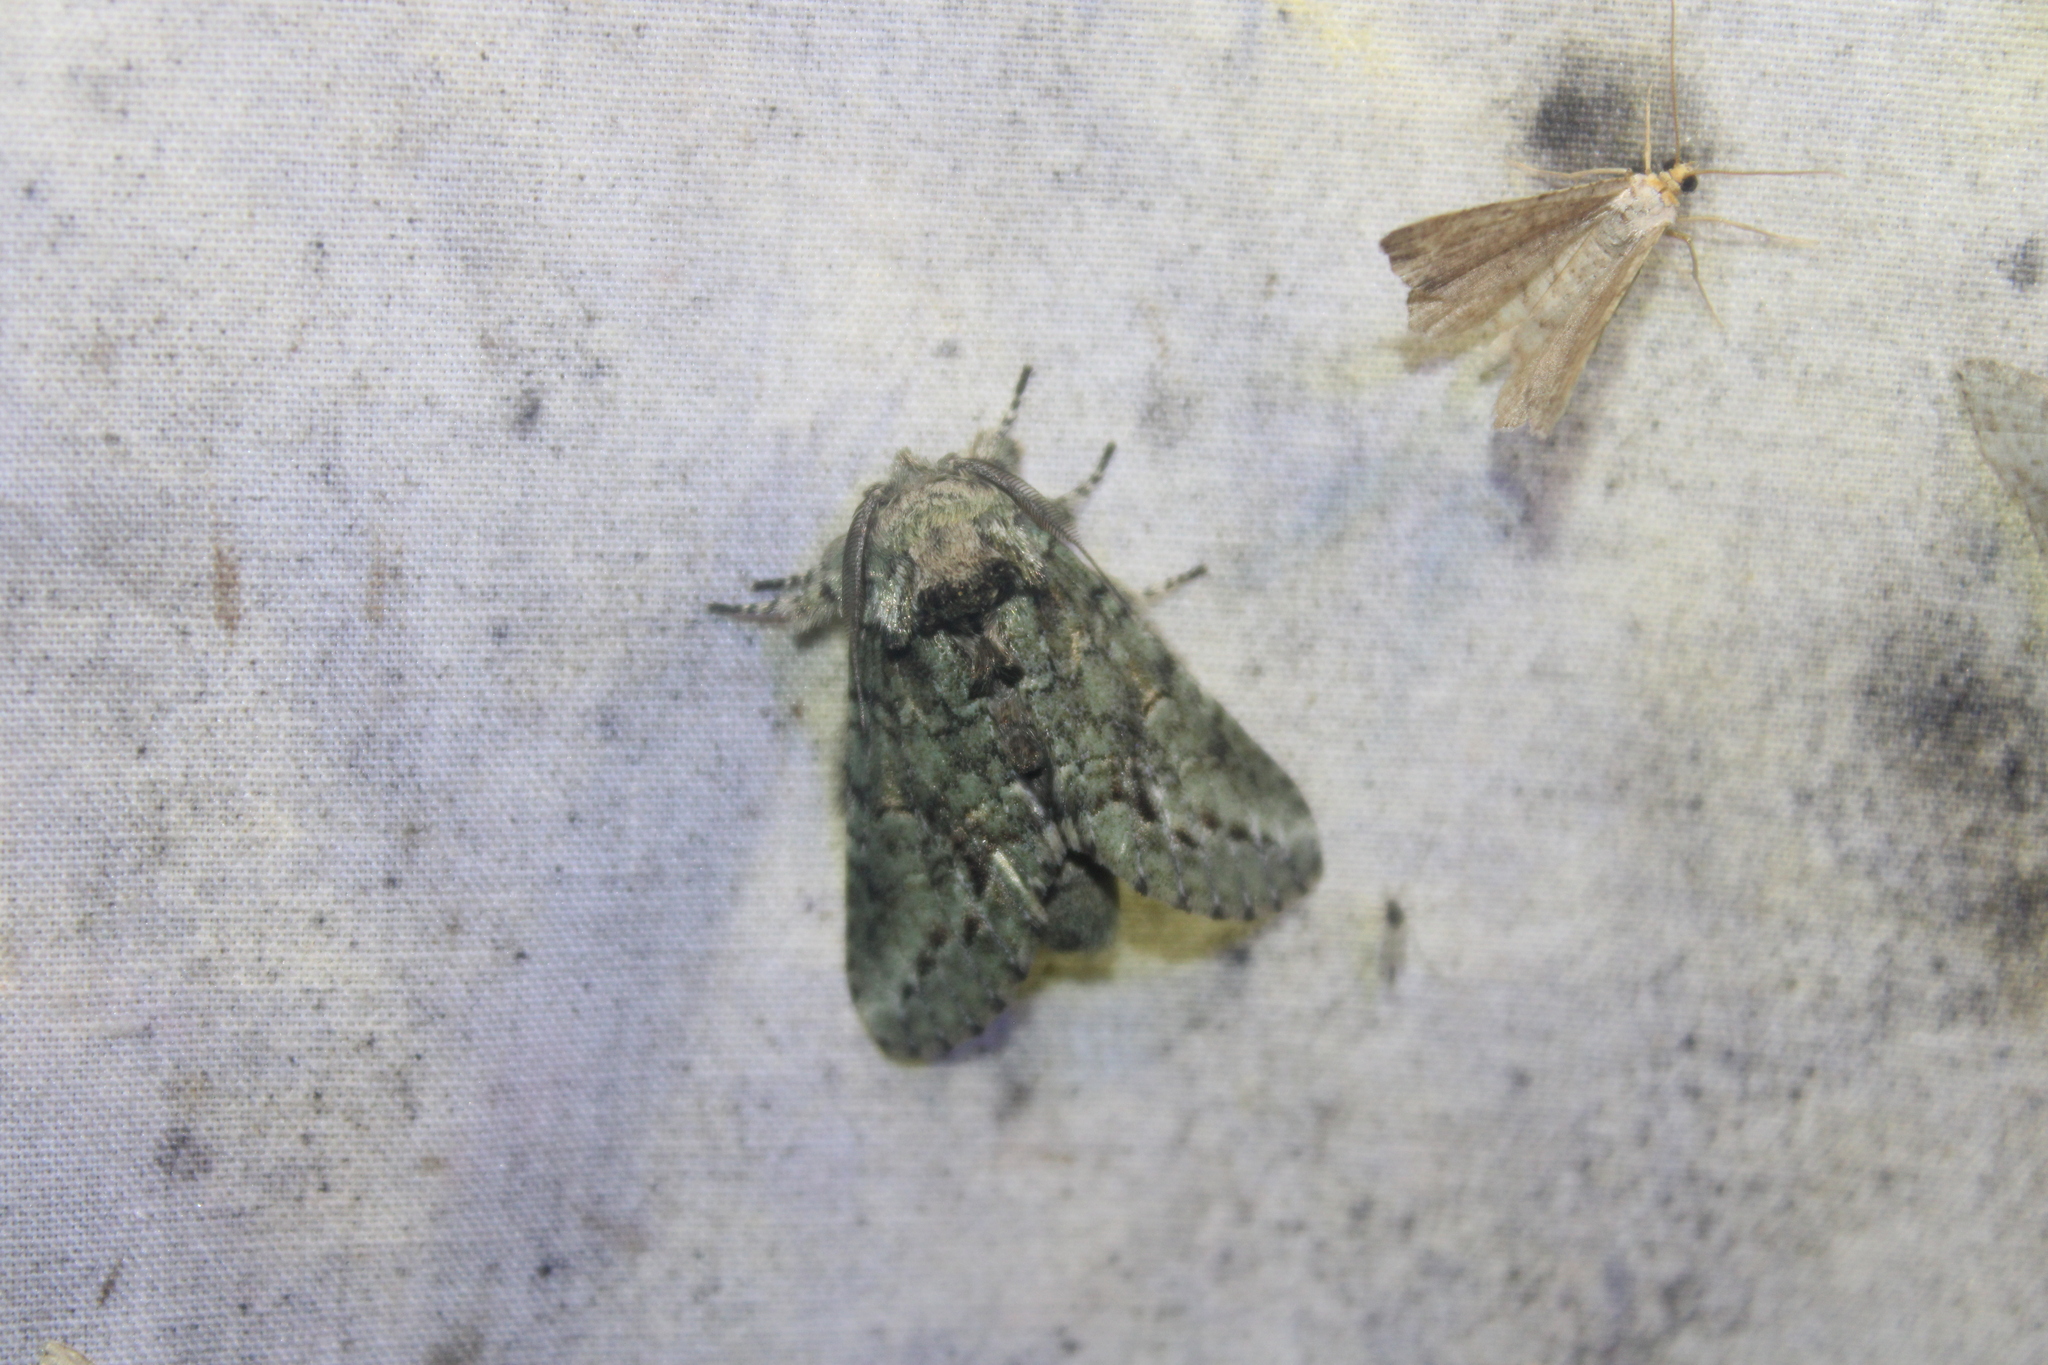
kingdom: Animalia
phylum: Arthropoda
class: Insecta
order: Lepidoptera
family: Notodontidae
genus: Heterocampa
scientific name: Heterocampa
